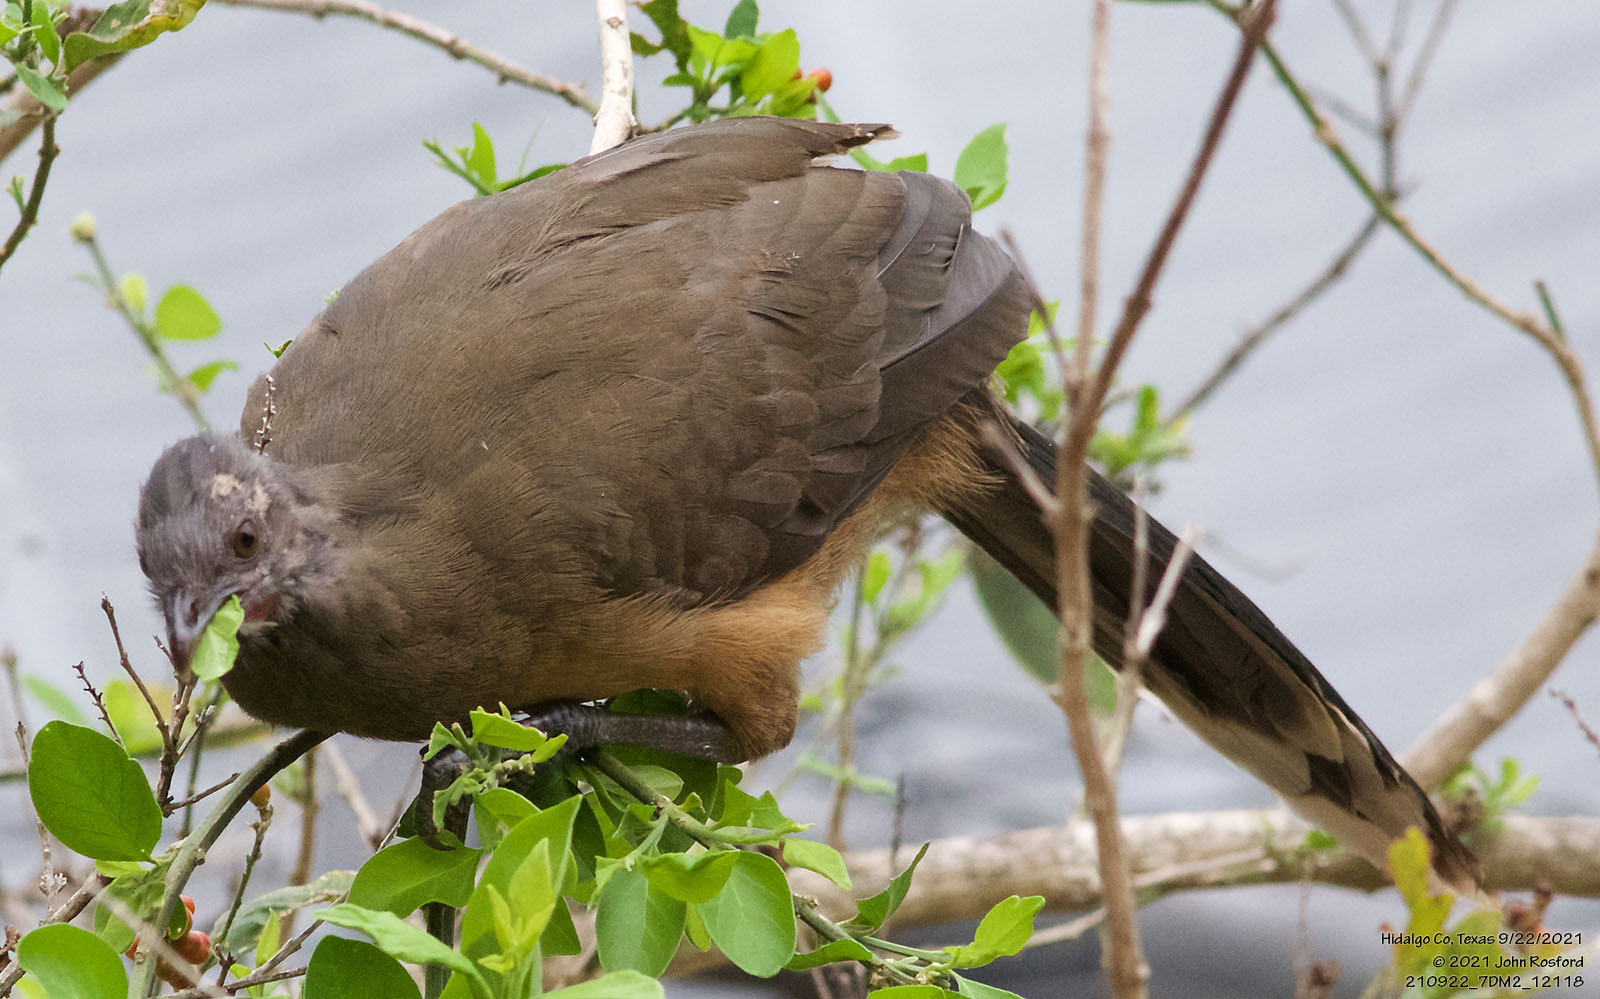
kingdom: Animalia
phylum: Chordata
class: Aves
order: Galliformes
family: Cracidae
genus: Ortalis
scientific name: Ortalis vetula
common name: Plain chachalaca
